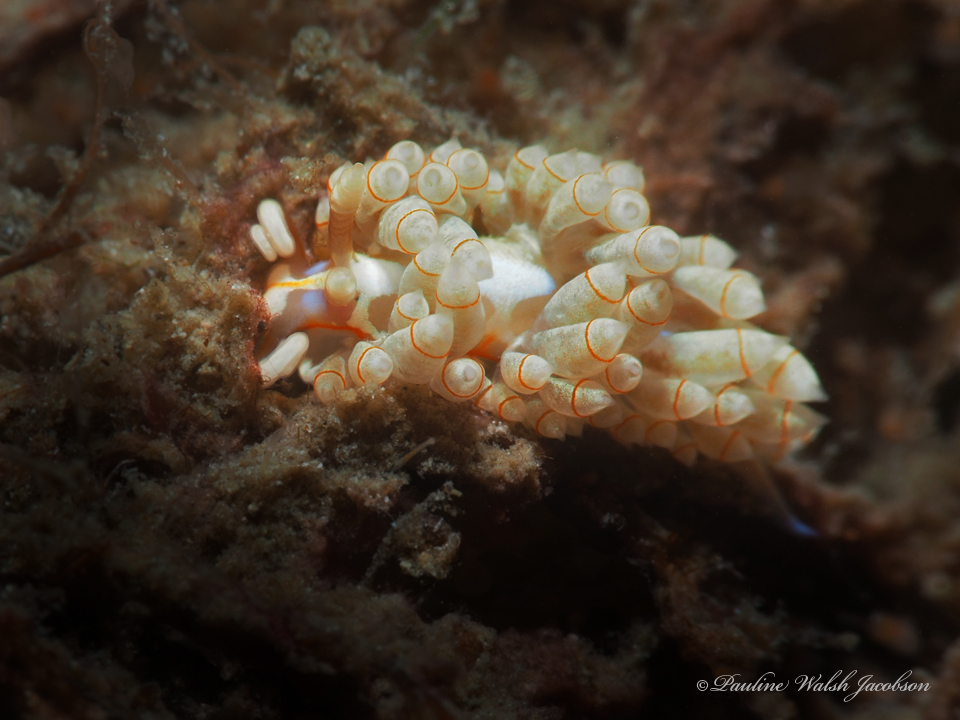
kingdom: Animalia
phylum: Mollusca
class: Gastropoda
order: Nudibranchia
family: Myrrhinidae
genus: Dondice
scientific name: Dondice freddiemercuryi
